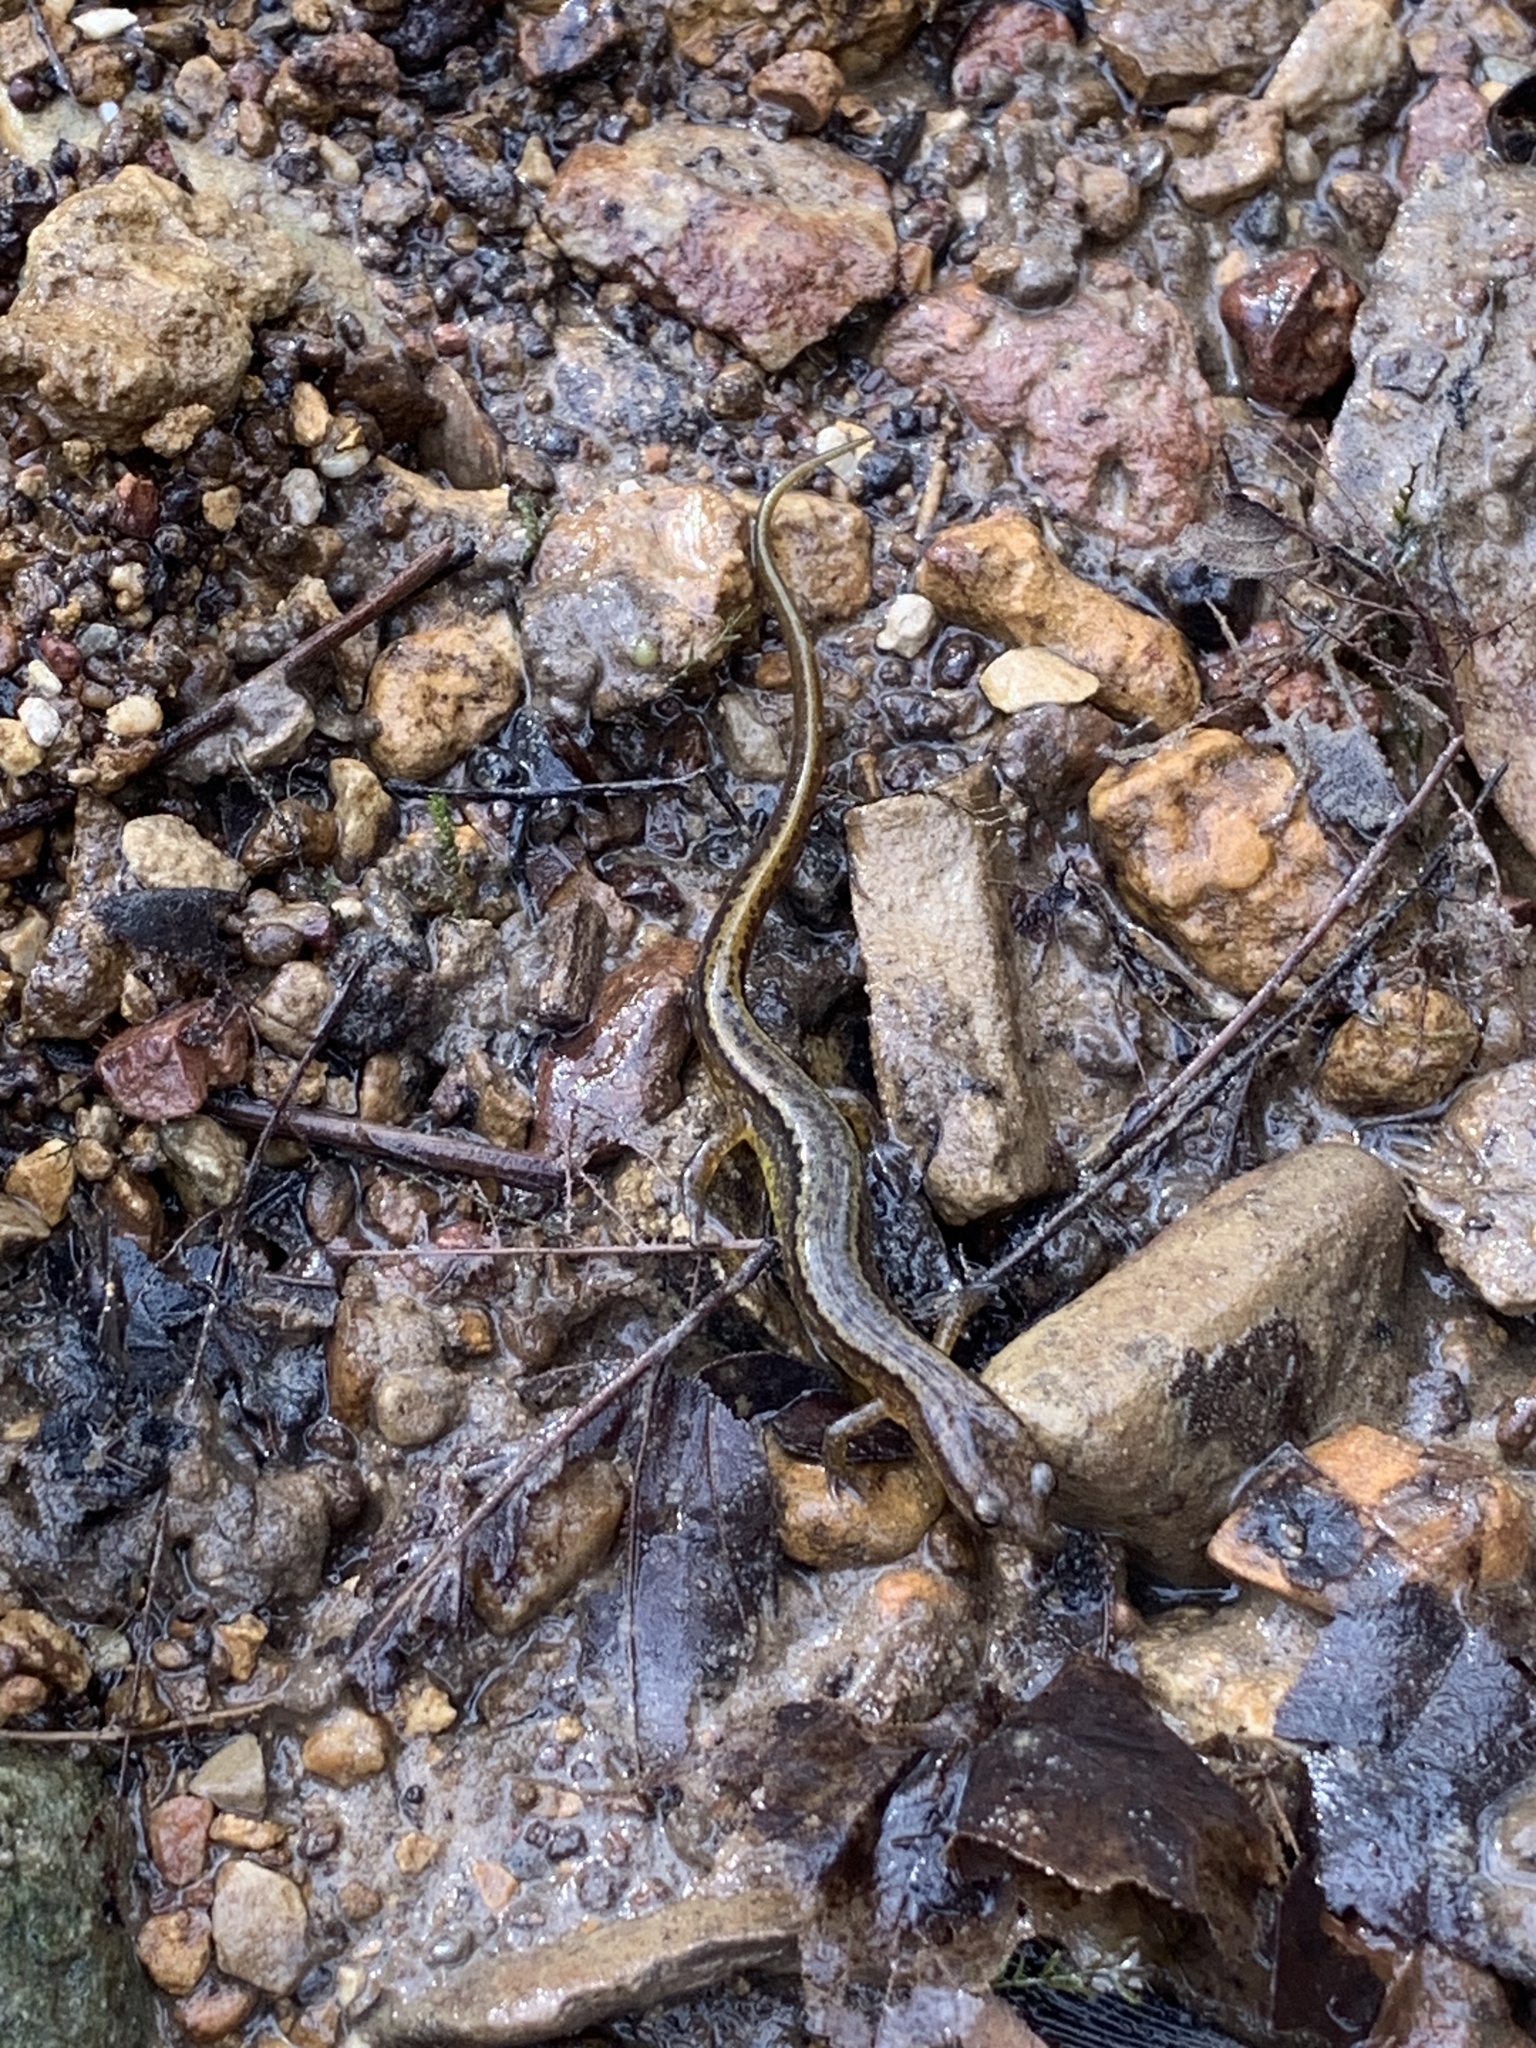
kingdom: Animalia
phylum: Chordata
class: Amphibia
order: Caudata
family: Plethodontidae
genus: Eurycea
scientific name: Eurycea cirrigera
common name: Southern two-lined salamander
